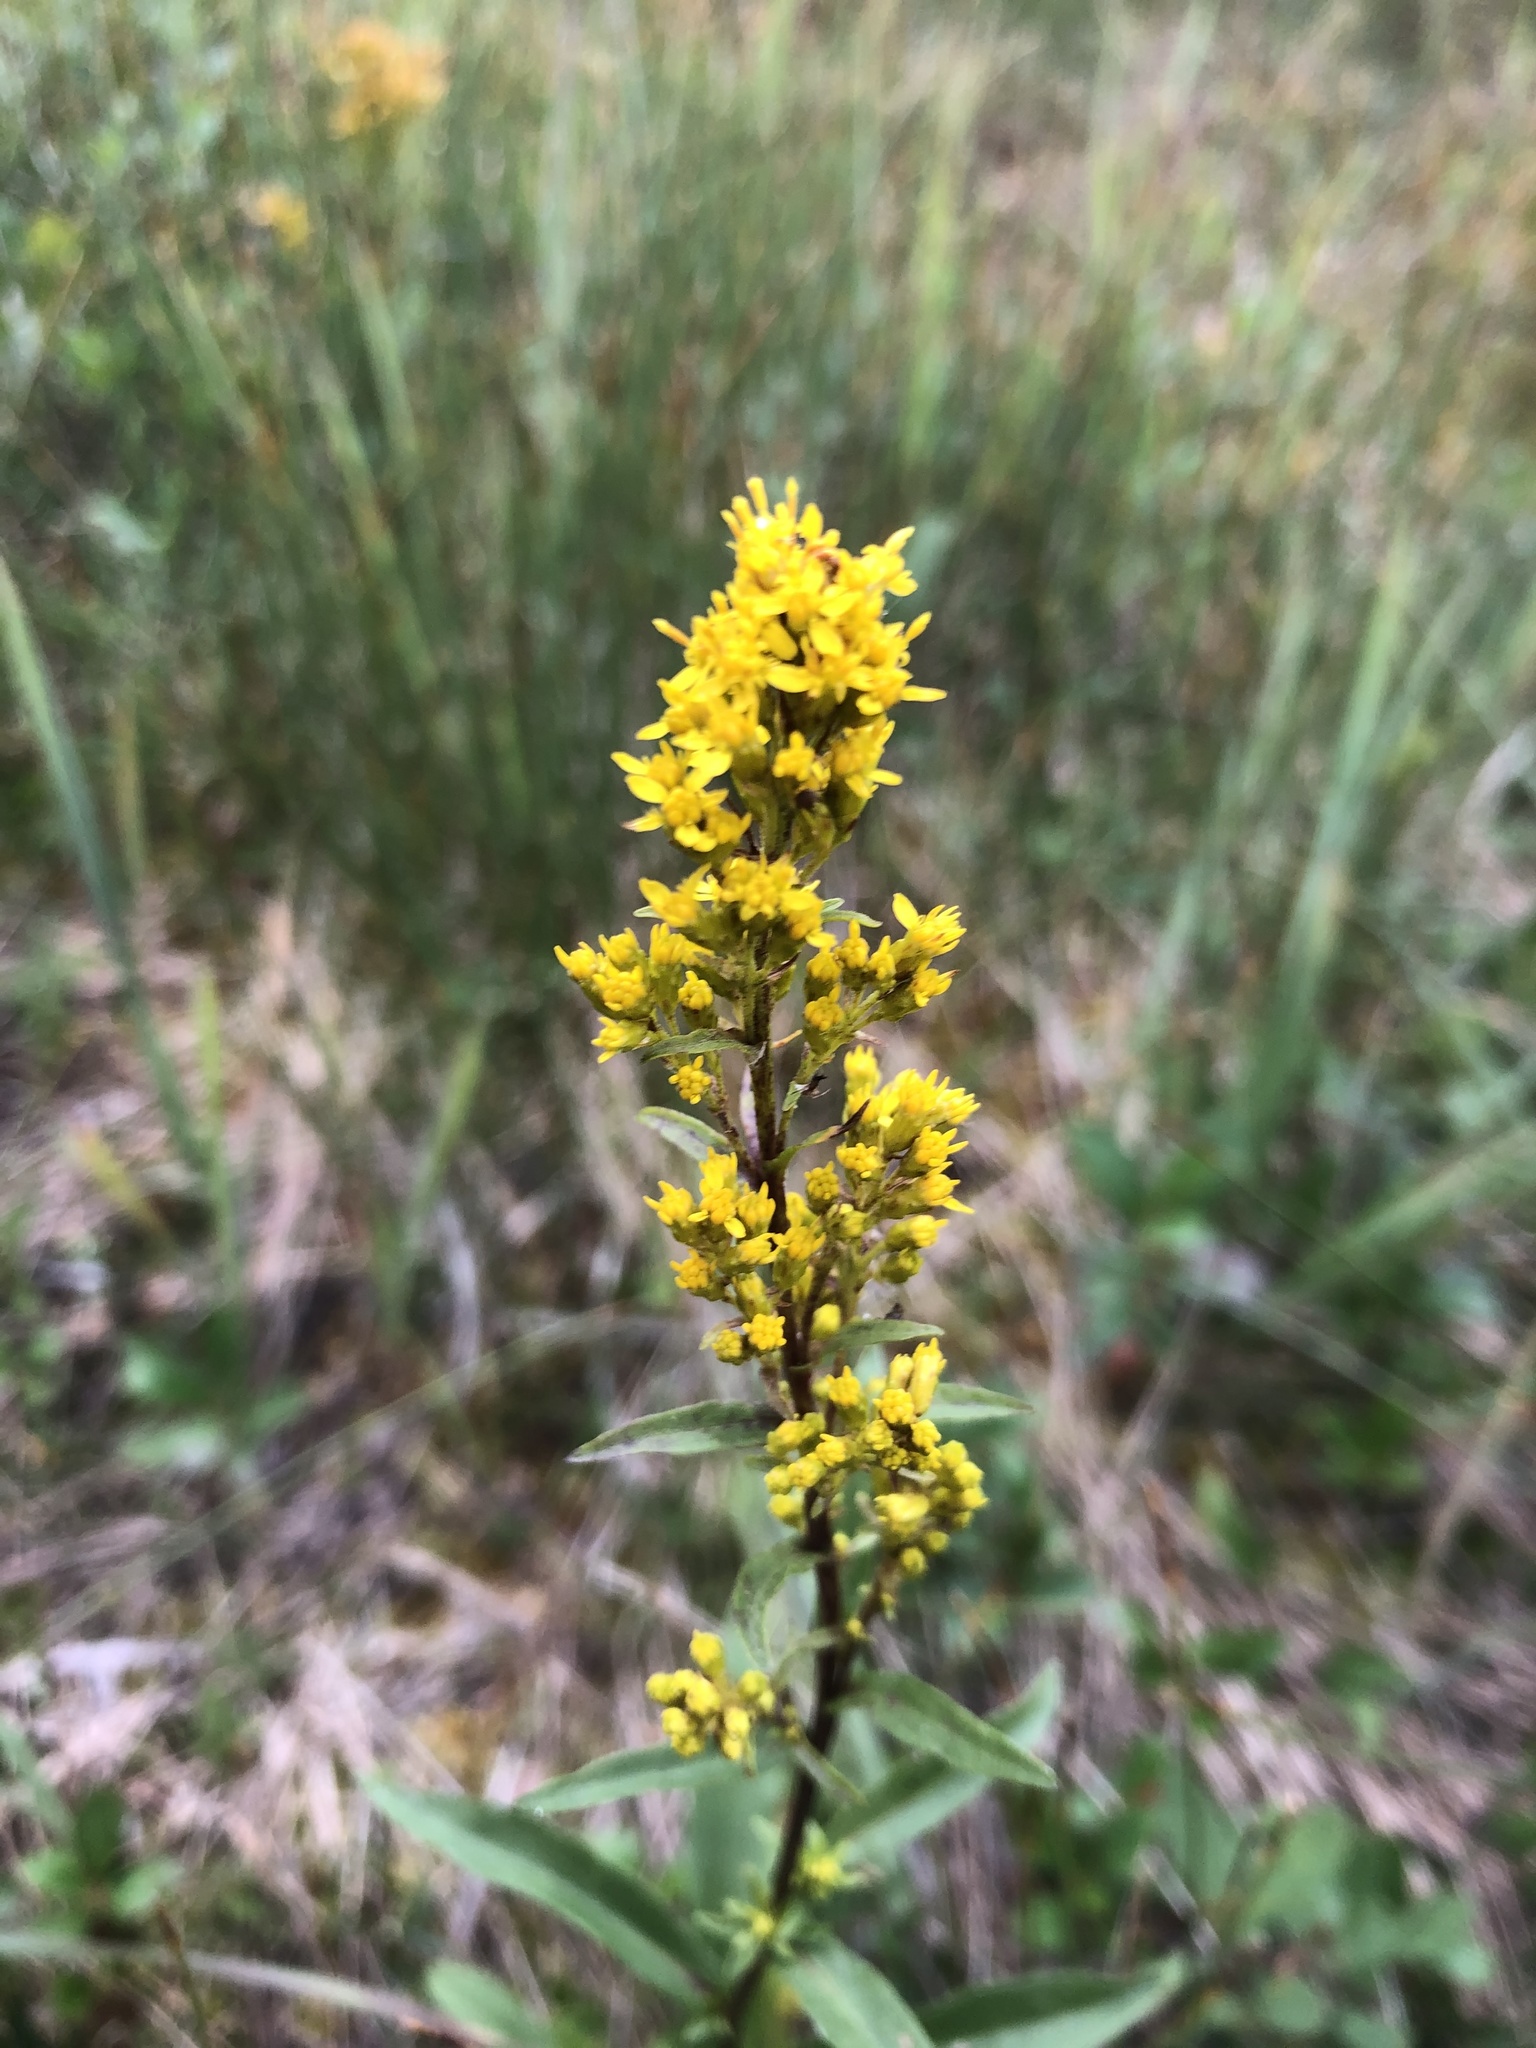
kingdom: Plantae
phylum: Tracheophyta
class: Magnoliopsida
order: Asterales
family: Asteraceae
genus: Solidago
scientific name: Solidago uliginosa
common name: Bog goldenrod
